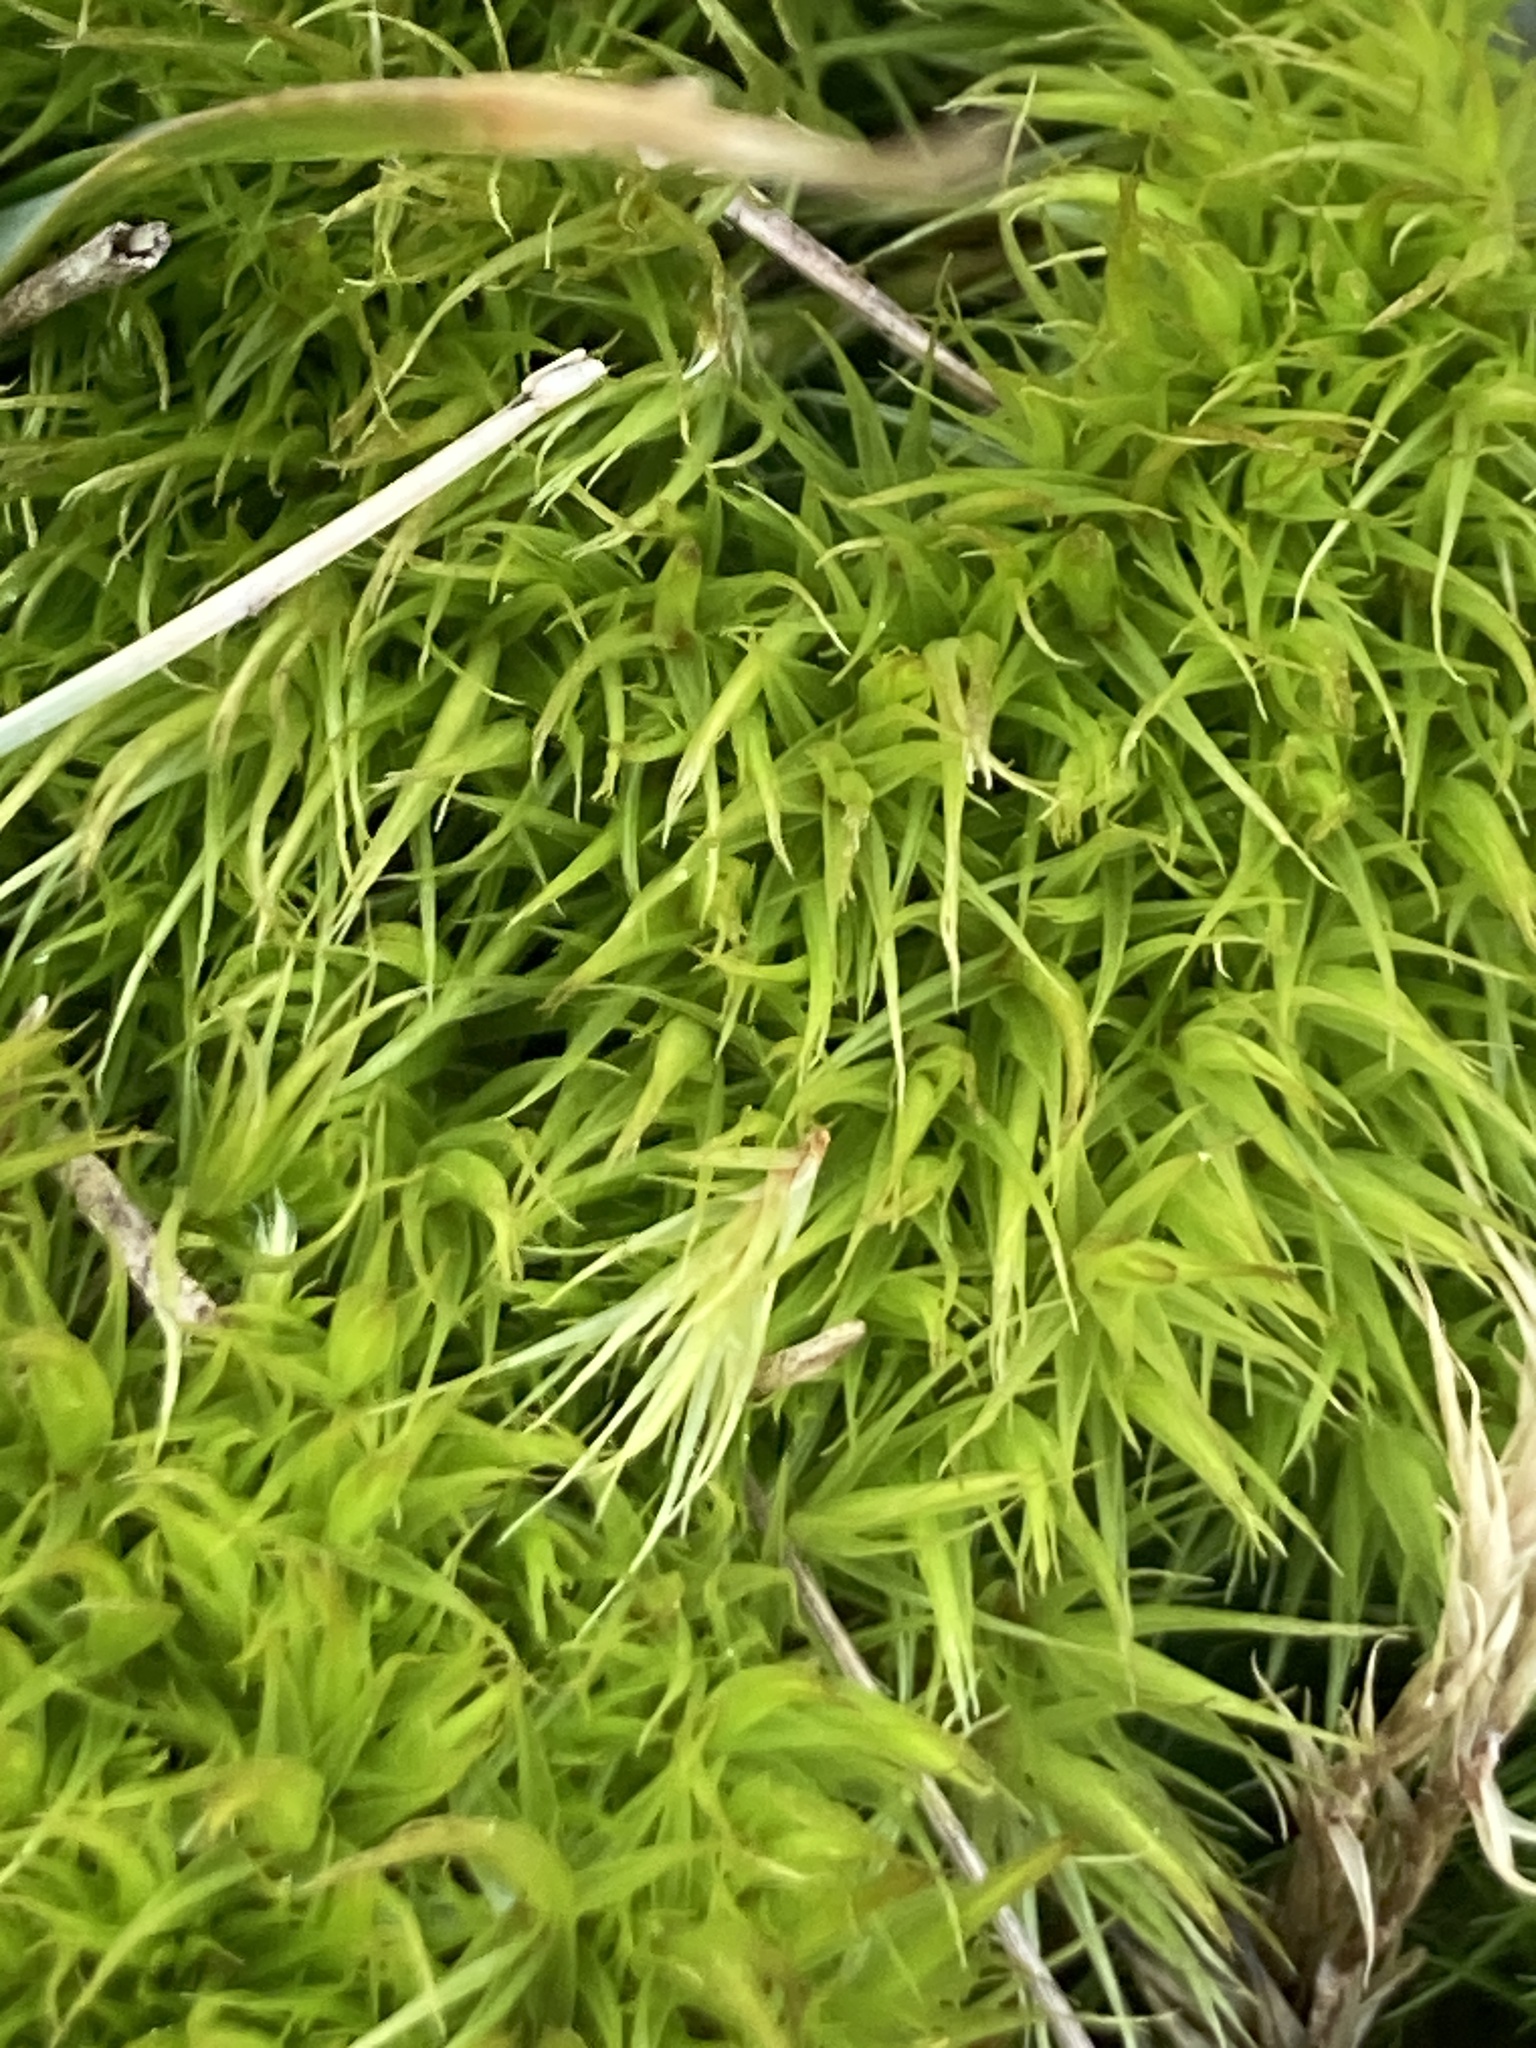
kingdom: Plantae
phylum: Bryophyta
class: Bryopsida
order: Dicranales
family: Dicranaceae
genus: Dicranum
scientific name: Dicranum scoparium
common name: Broom fork-moss
